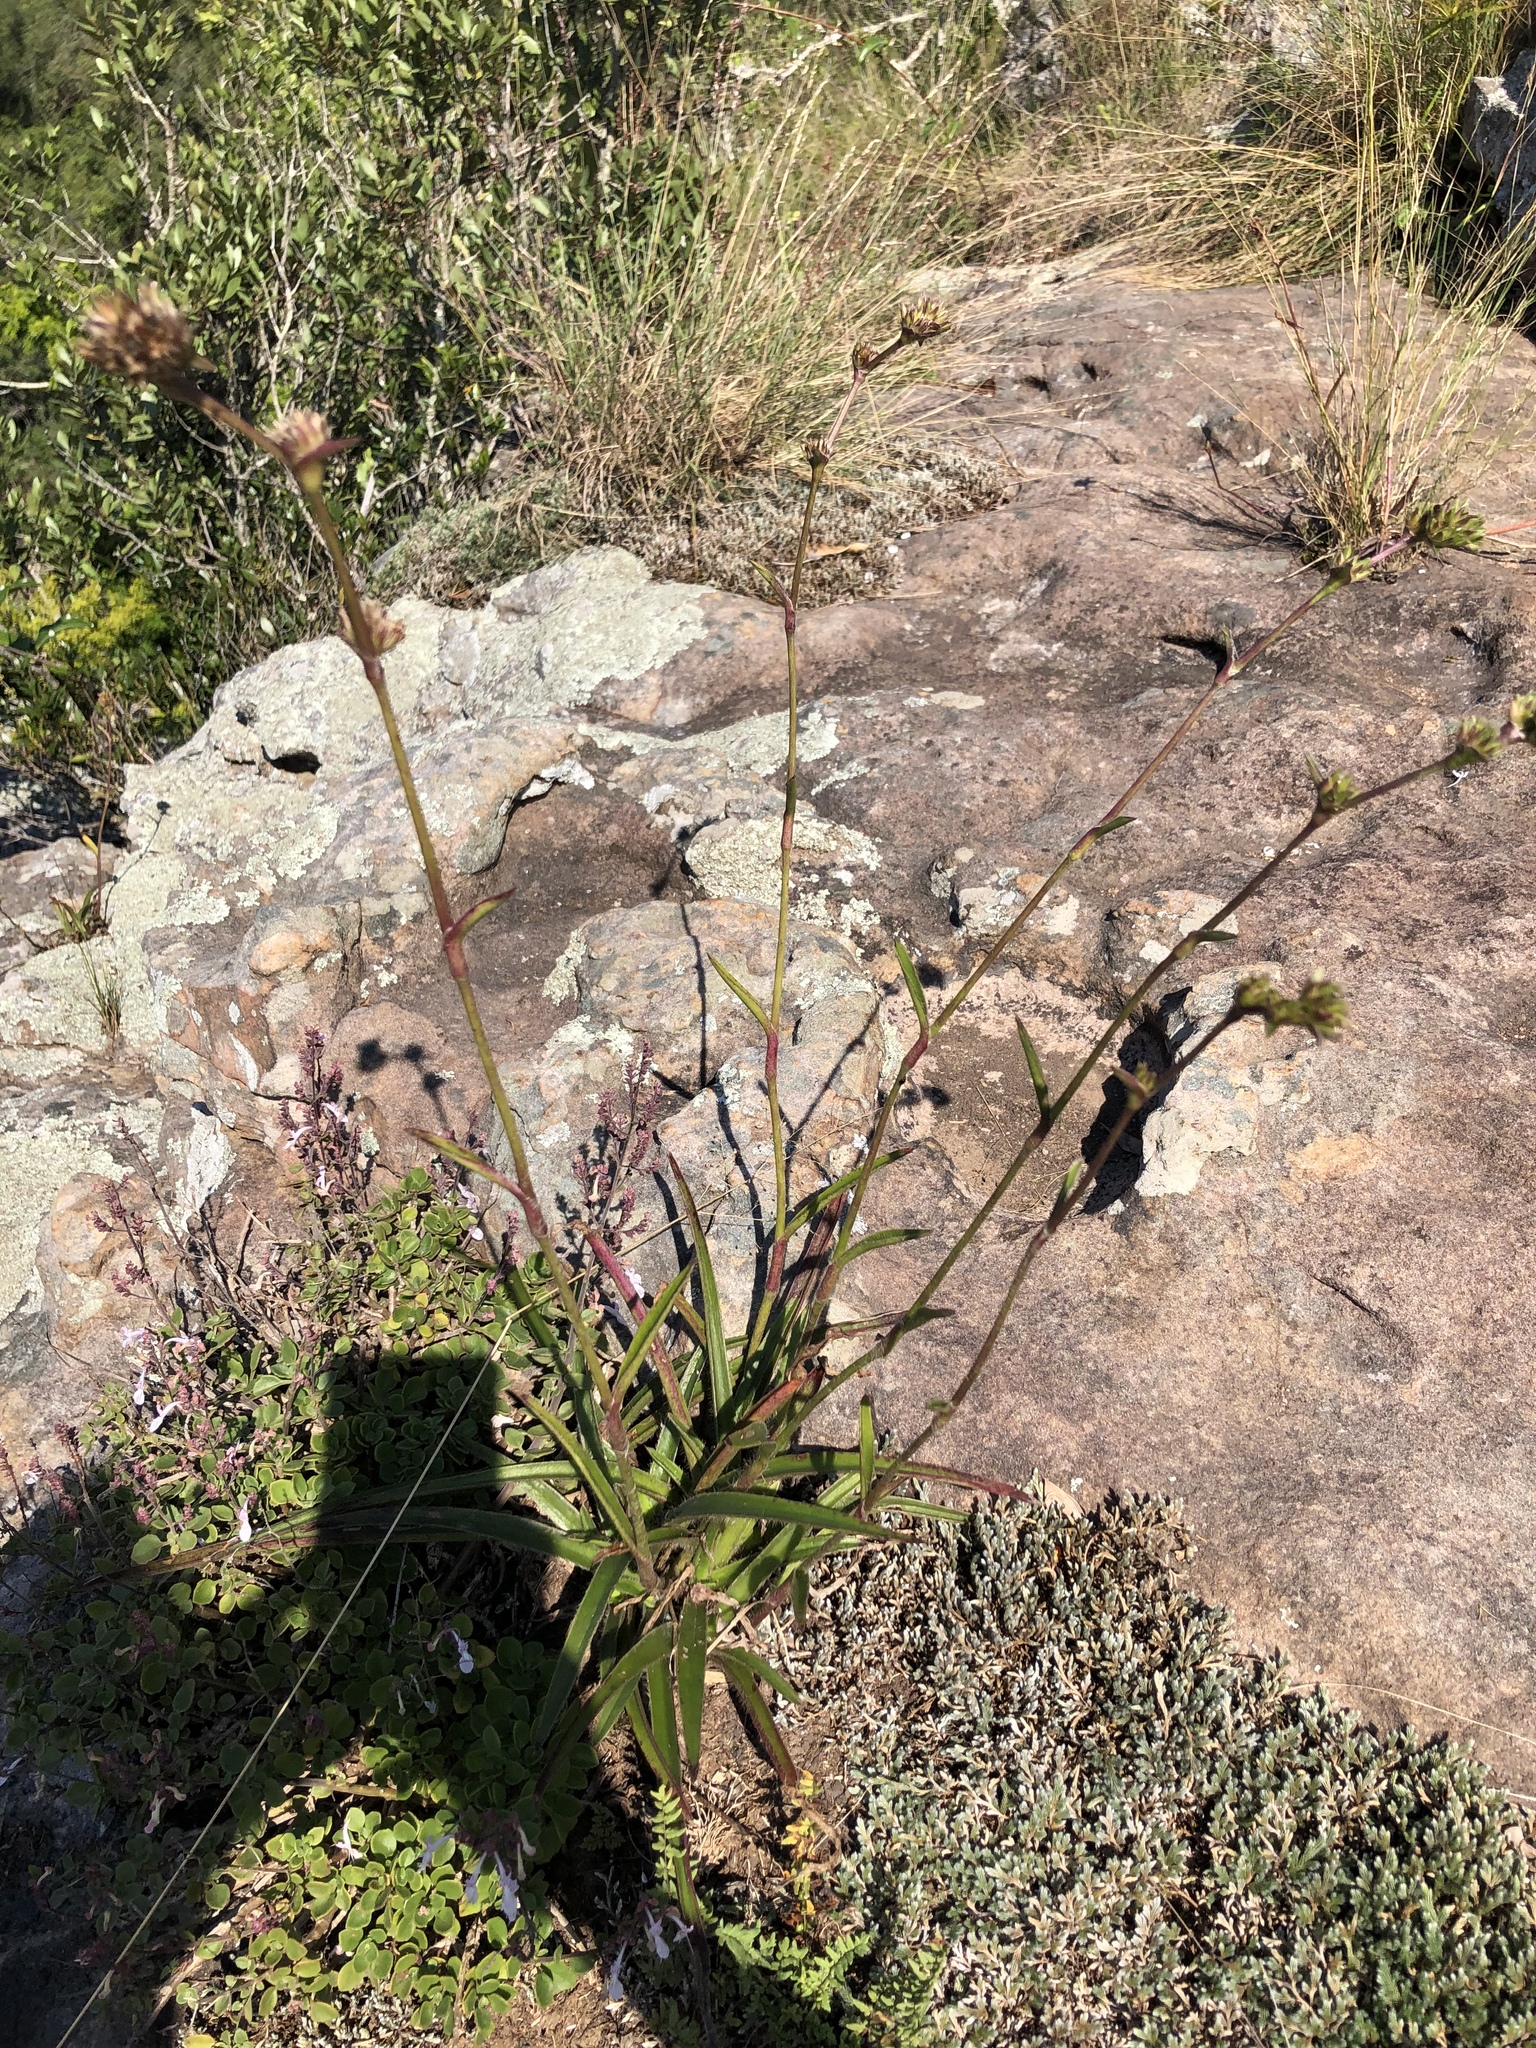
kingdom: Plantae
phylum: Tracheophyta
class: Liliopsida
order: Commelinales
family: Commelinaceae
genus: Cyanotis
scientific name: Cyanotis speciosa
